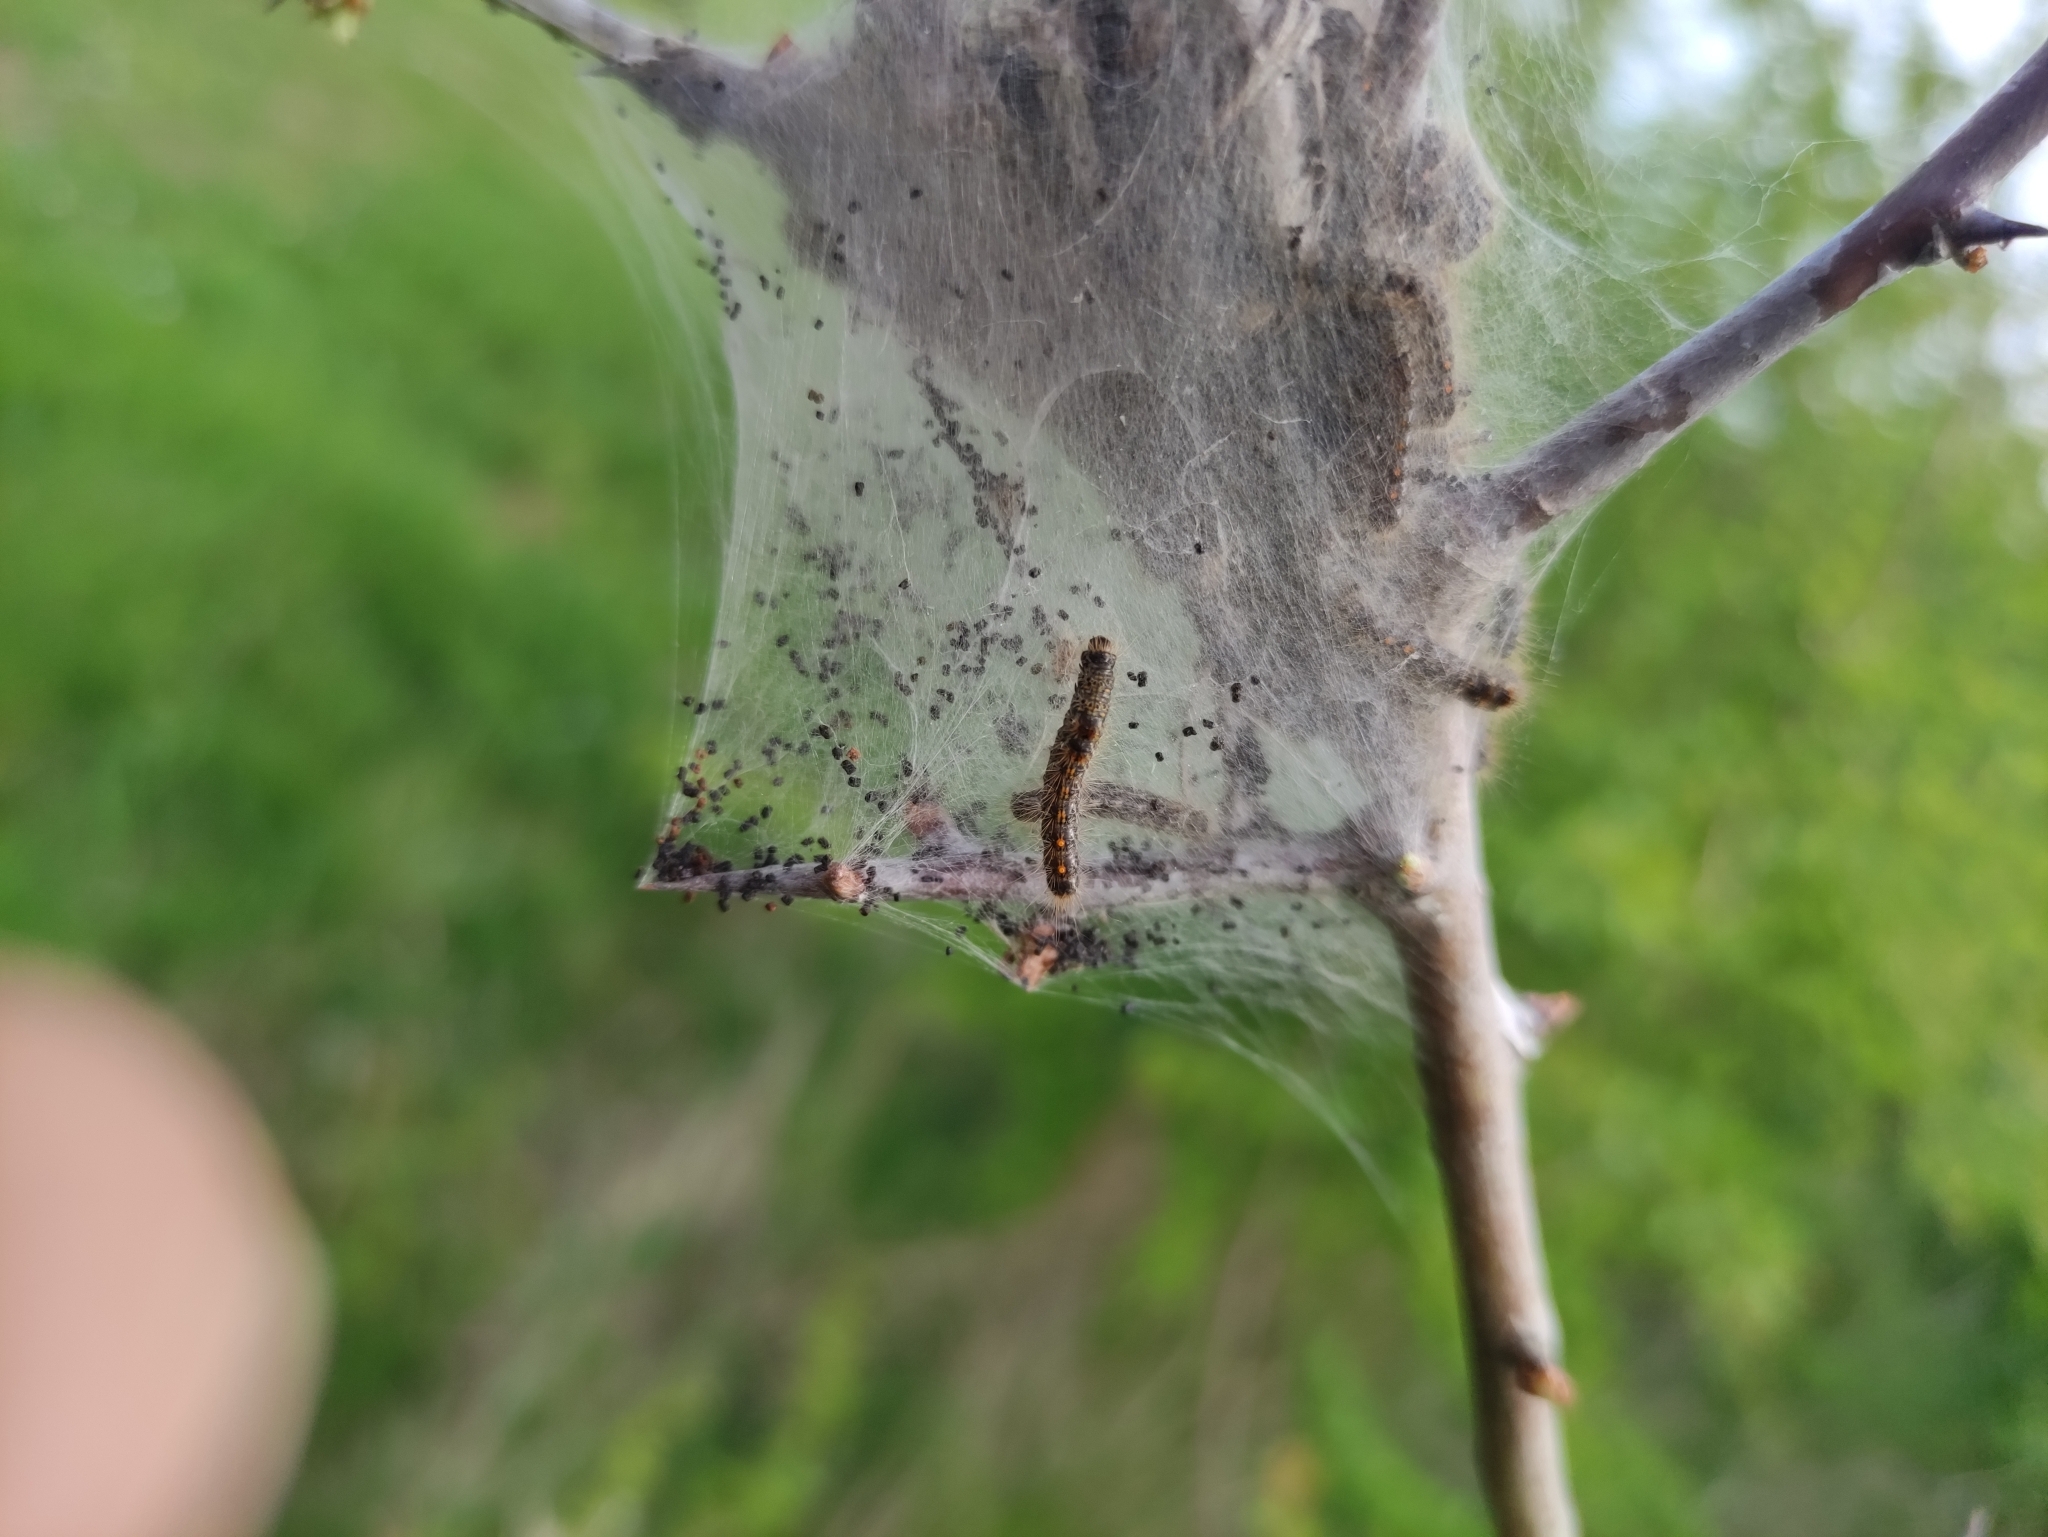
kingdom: Animalia
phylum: Arthropoda
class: Insecta
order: Lepidoptera
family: Erebidae
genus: Euproctis
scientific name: Euproctis chrysorrhoea
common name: Brown-tail
